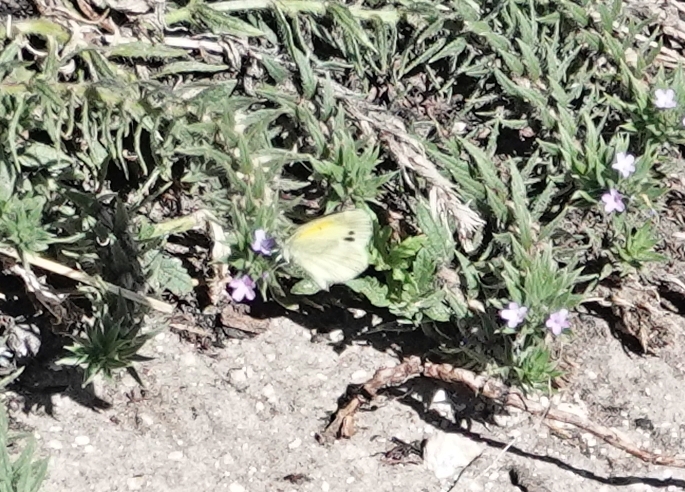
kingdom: Animalia
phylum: Arthropoda
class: Insecta
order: Lepidoptera
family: Pieridae
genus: Nathalis
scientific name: Nathalis iole
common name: Dainty sulphur
